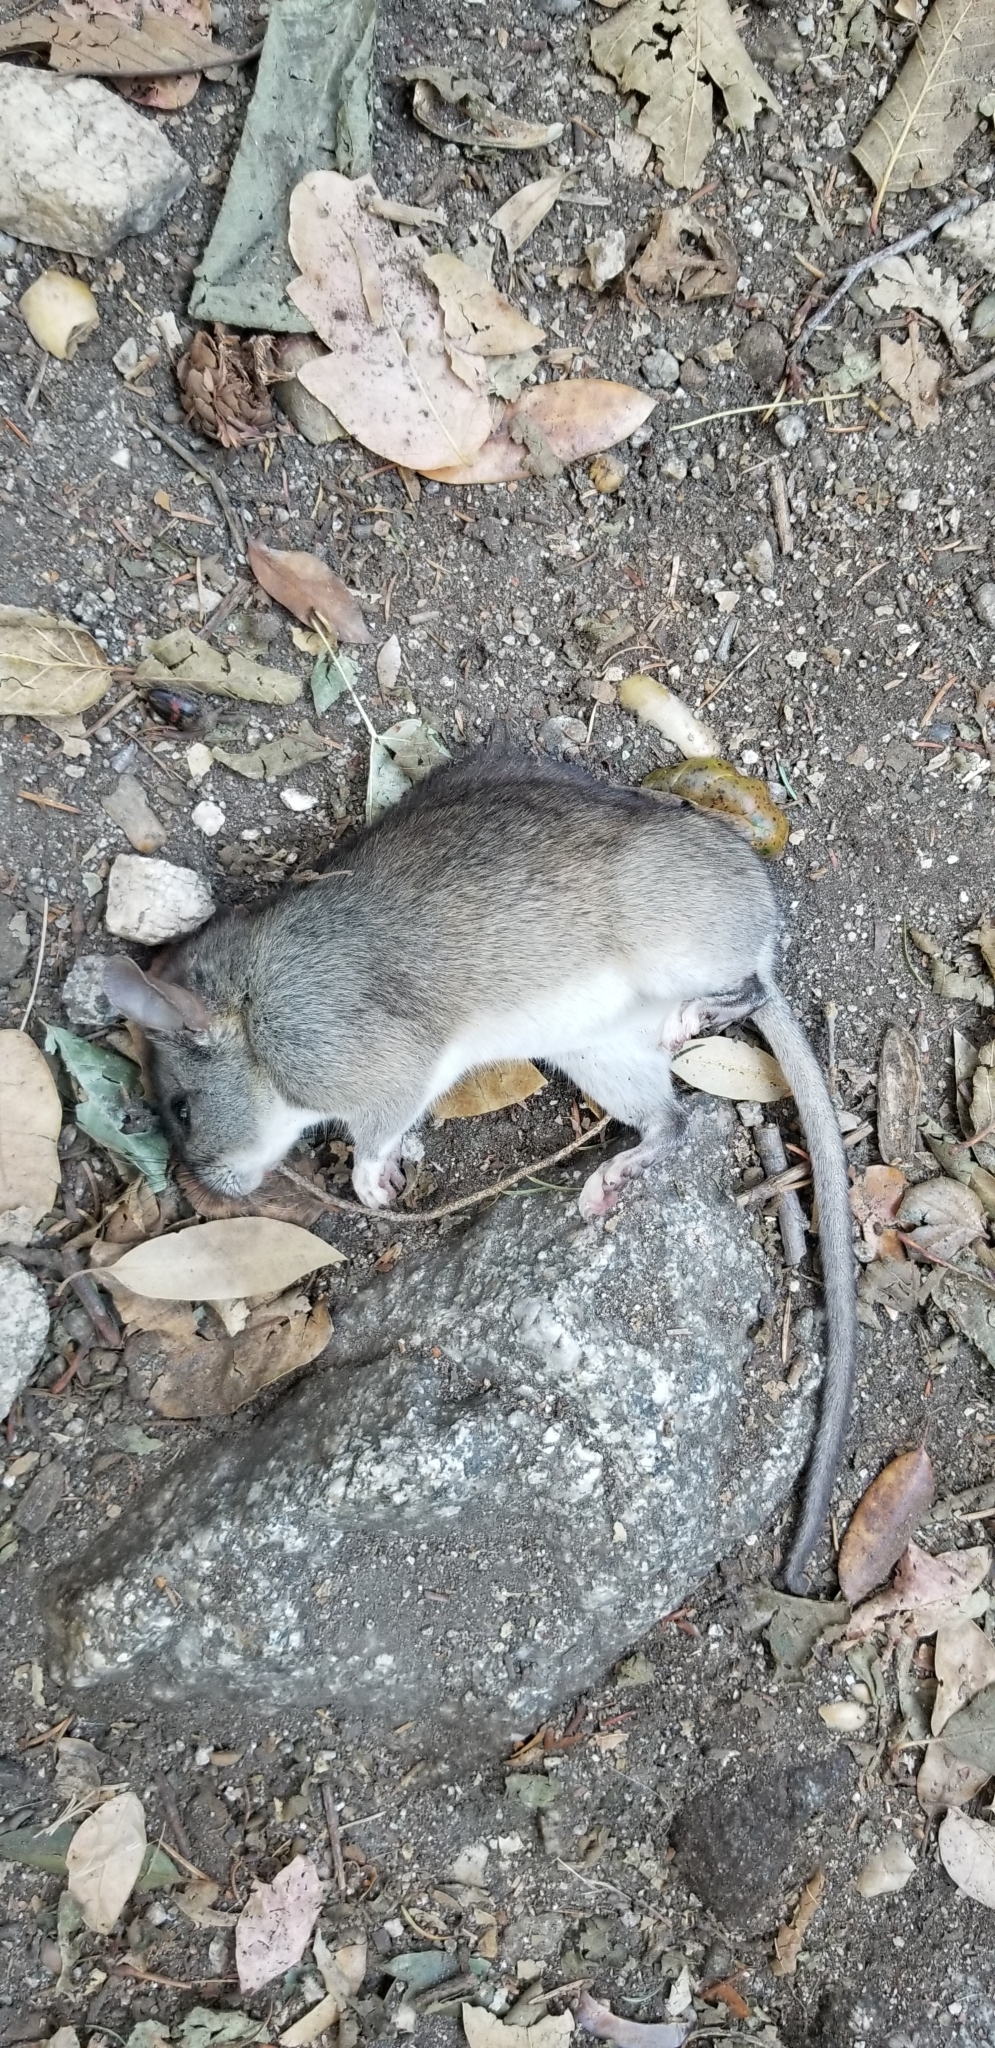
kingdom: Animalia
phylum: Chordata
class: Mammalia
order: Rodentia
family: Cricetidae
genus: Peromyscus
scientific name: Peromyscus maniculatus
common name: Deer mouse
